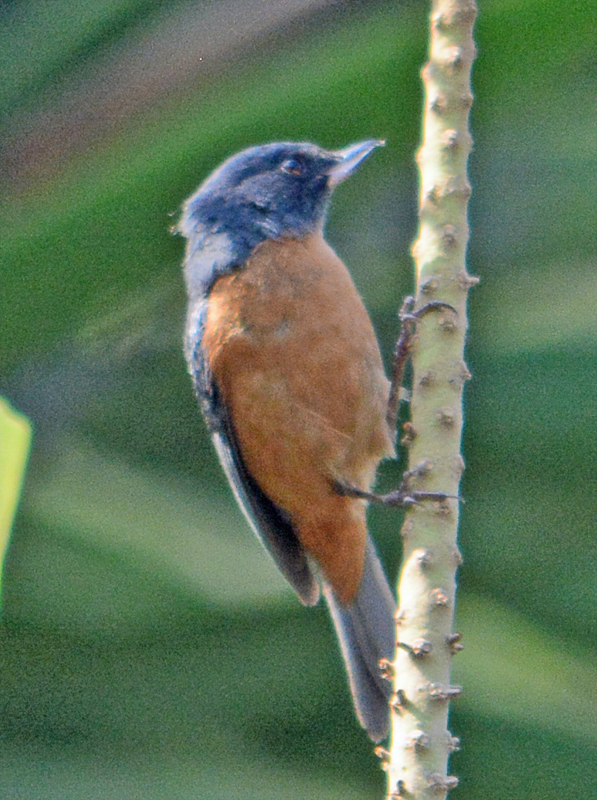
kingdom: Animalia
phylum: Chordata
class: Aves
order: Passeriformes
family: Thraupidae
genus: Diglossa
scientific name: Diglossa baritula
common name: Cinnamon-bellied flowerpiercer
